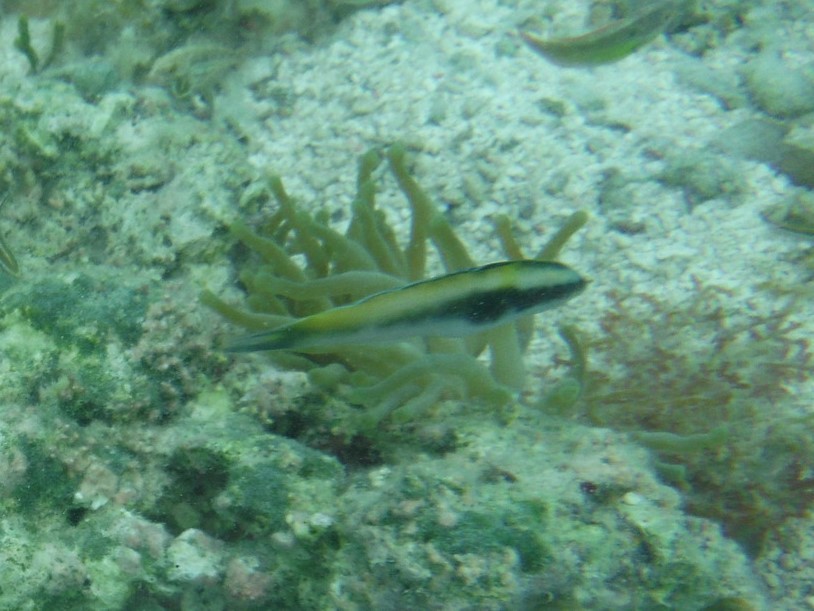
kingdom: Animalia
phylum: Chordata
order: Perciformes
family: Labridae
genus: Thalassoma
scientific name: Thalassoma bifasciatum
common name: Bluehead wrasse
